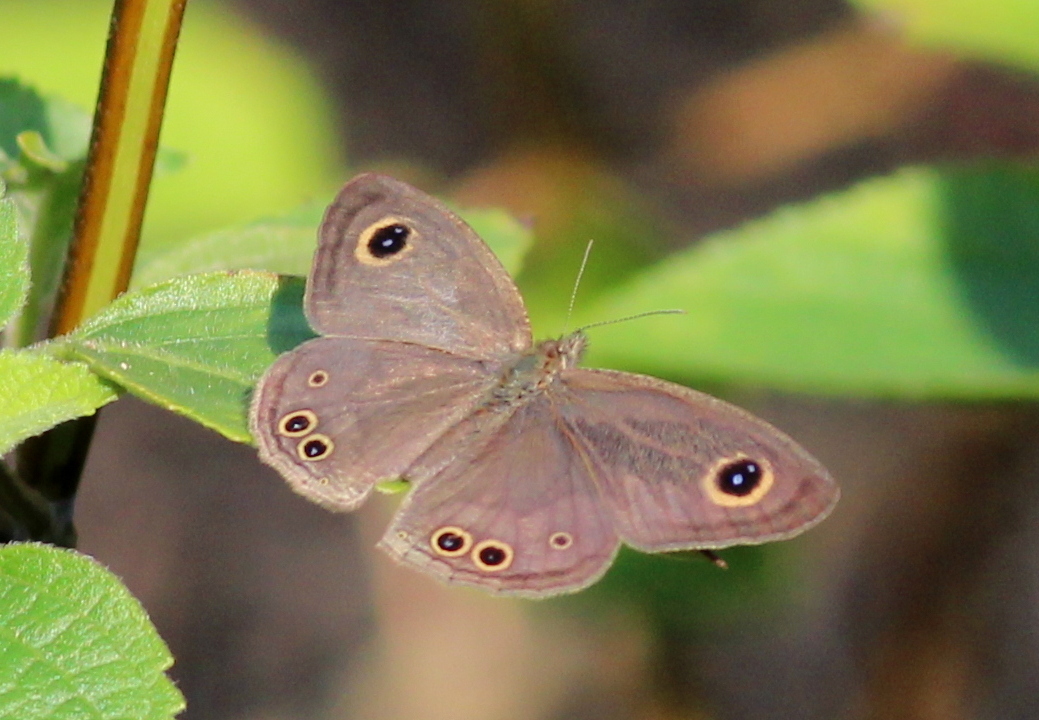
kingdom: Animalia
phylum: Arthropoda
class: Insecta
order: Lepidoptera
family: Nymphalidae
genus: Ypthima
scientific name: Ypthima baldus
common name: Common five-ring
